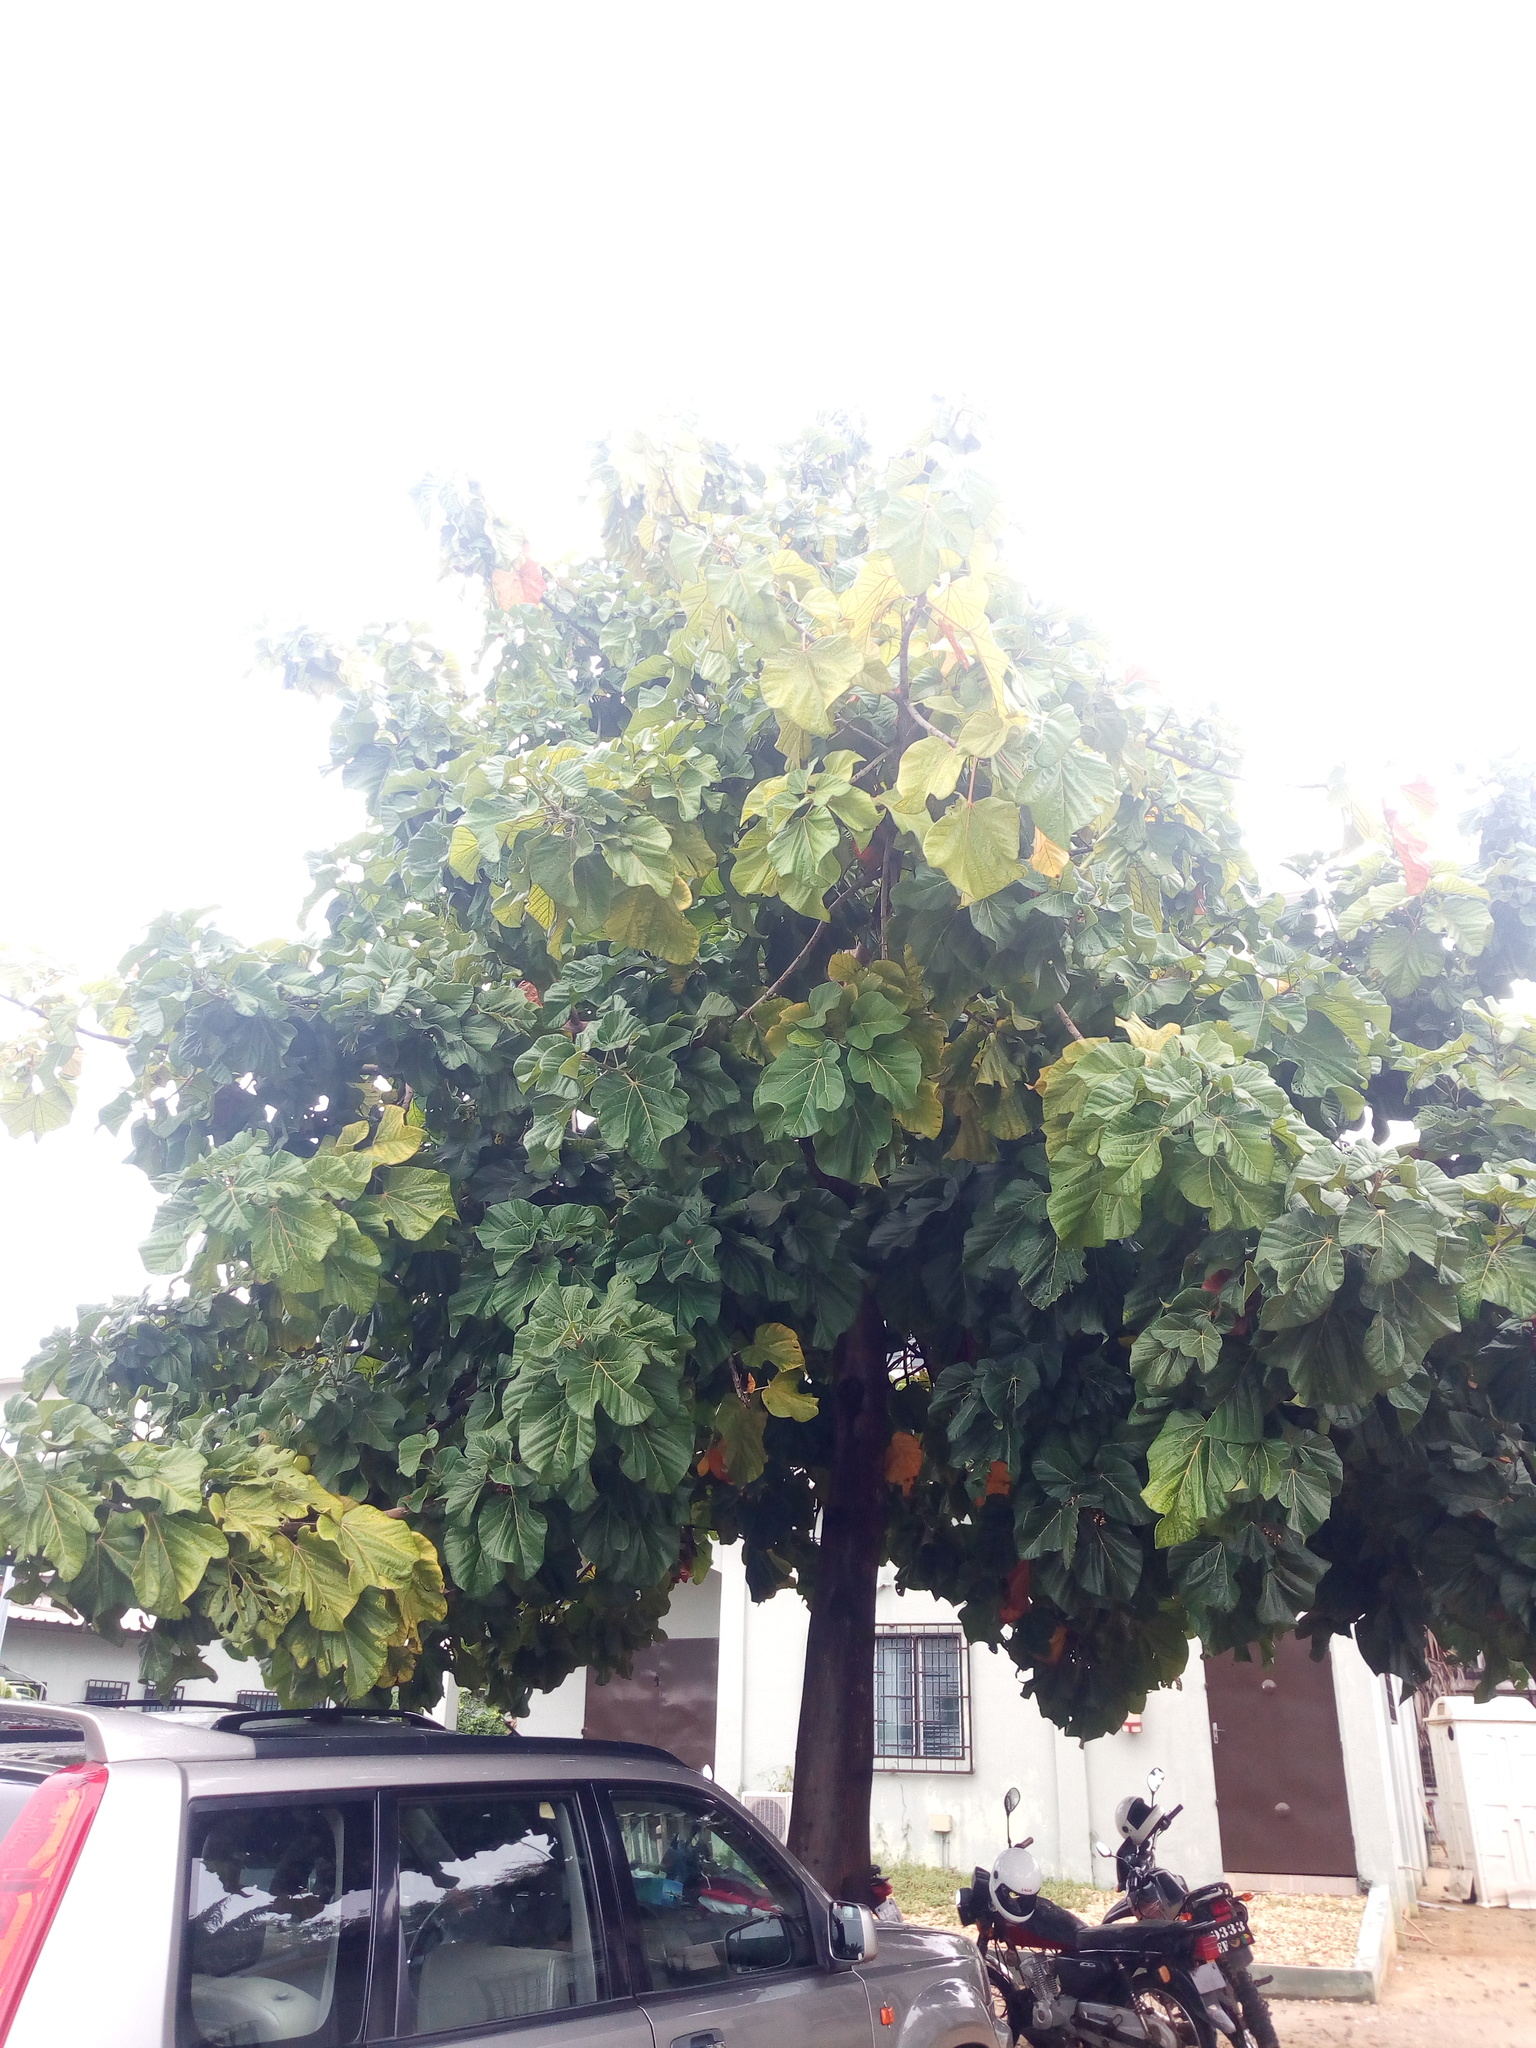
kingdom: Plantae
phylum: Tracheophyta
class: Magnoliopsida
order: Malvales
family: Malvaceae
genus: Cola
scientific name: Cola gigantea
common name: Giant cola
